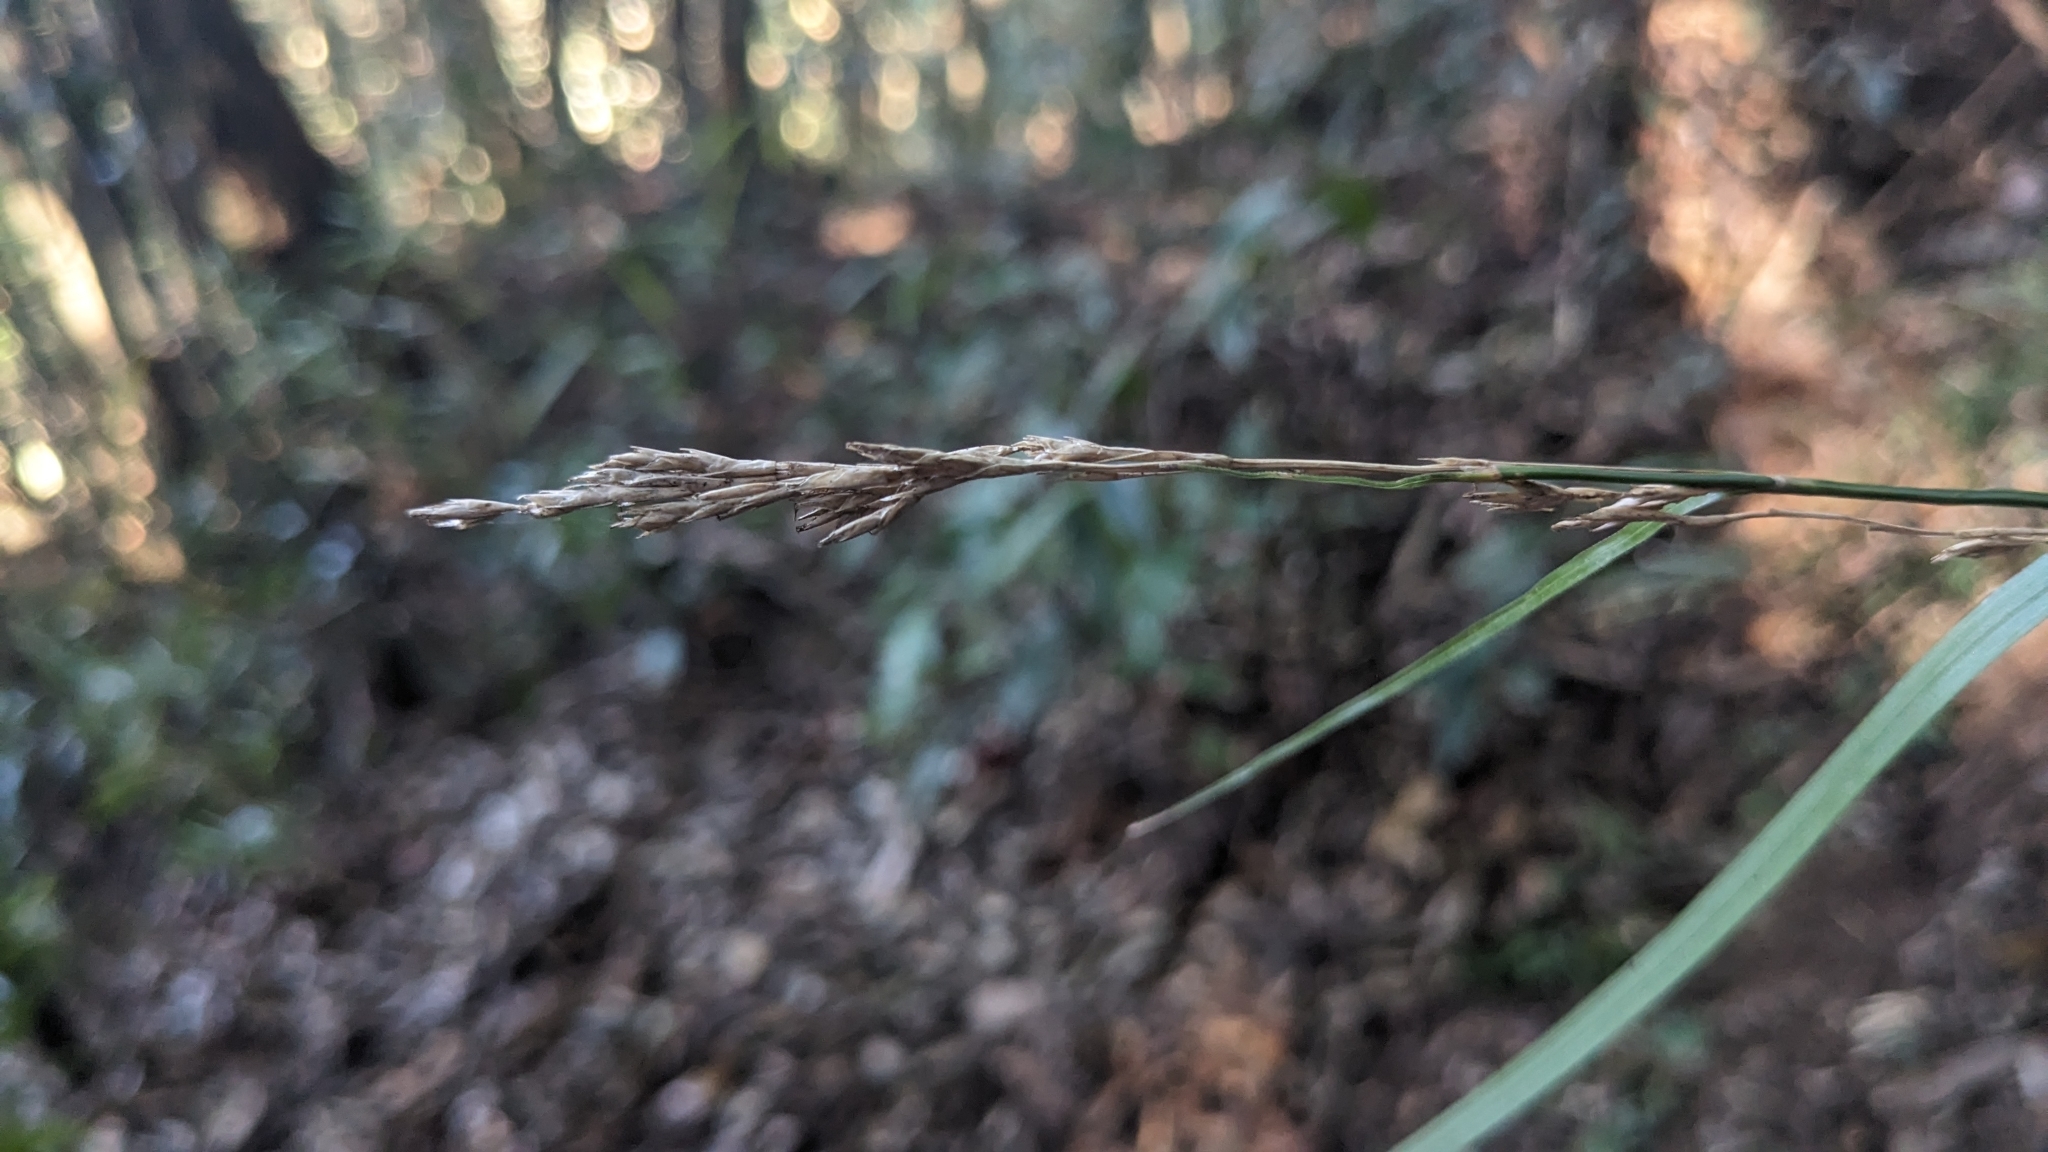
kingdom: Plantae
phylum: Tracheophyta
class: Liliopsida
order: Poales
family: Cyperaceae
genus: Carex
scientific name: Carex perakensis
